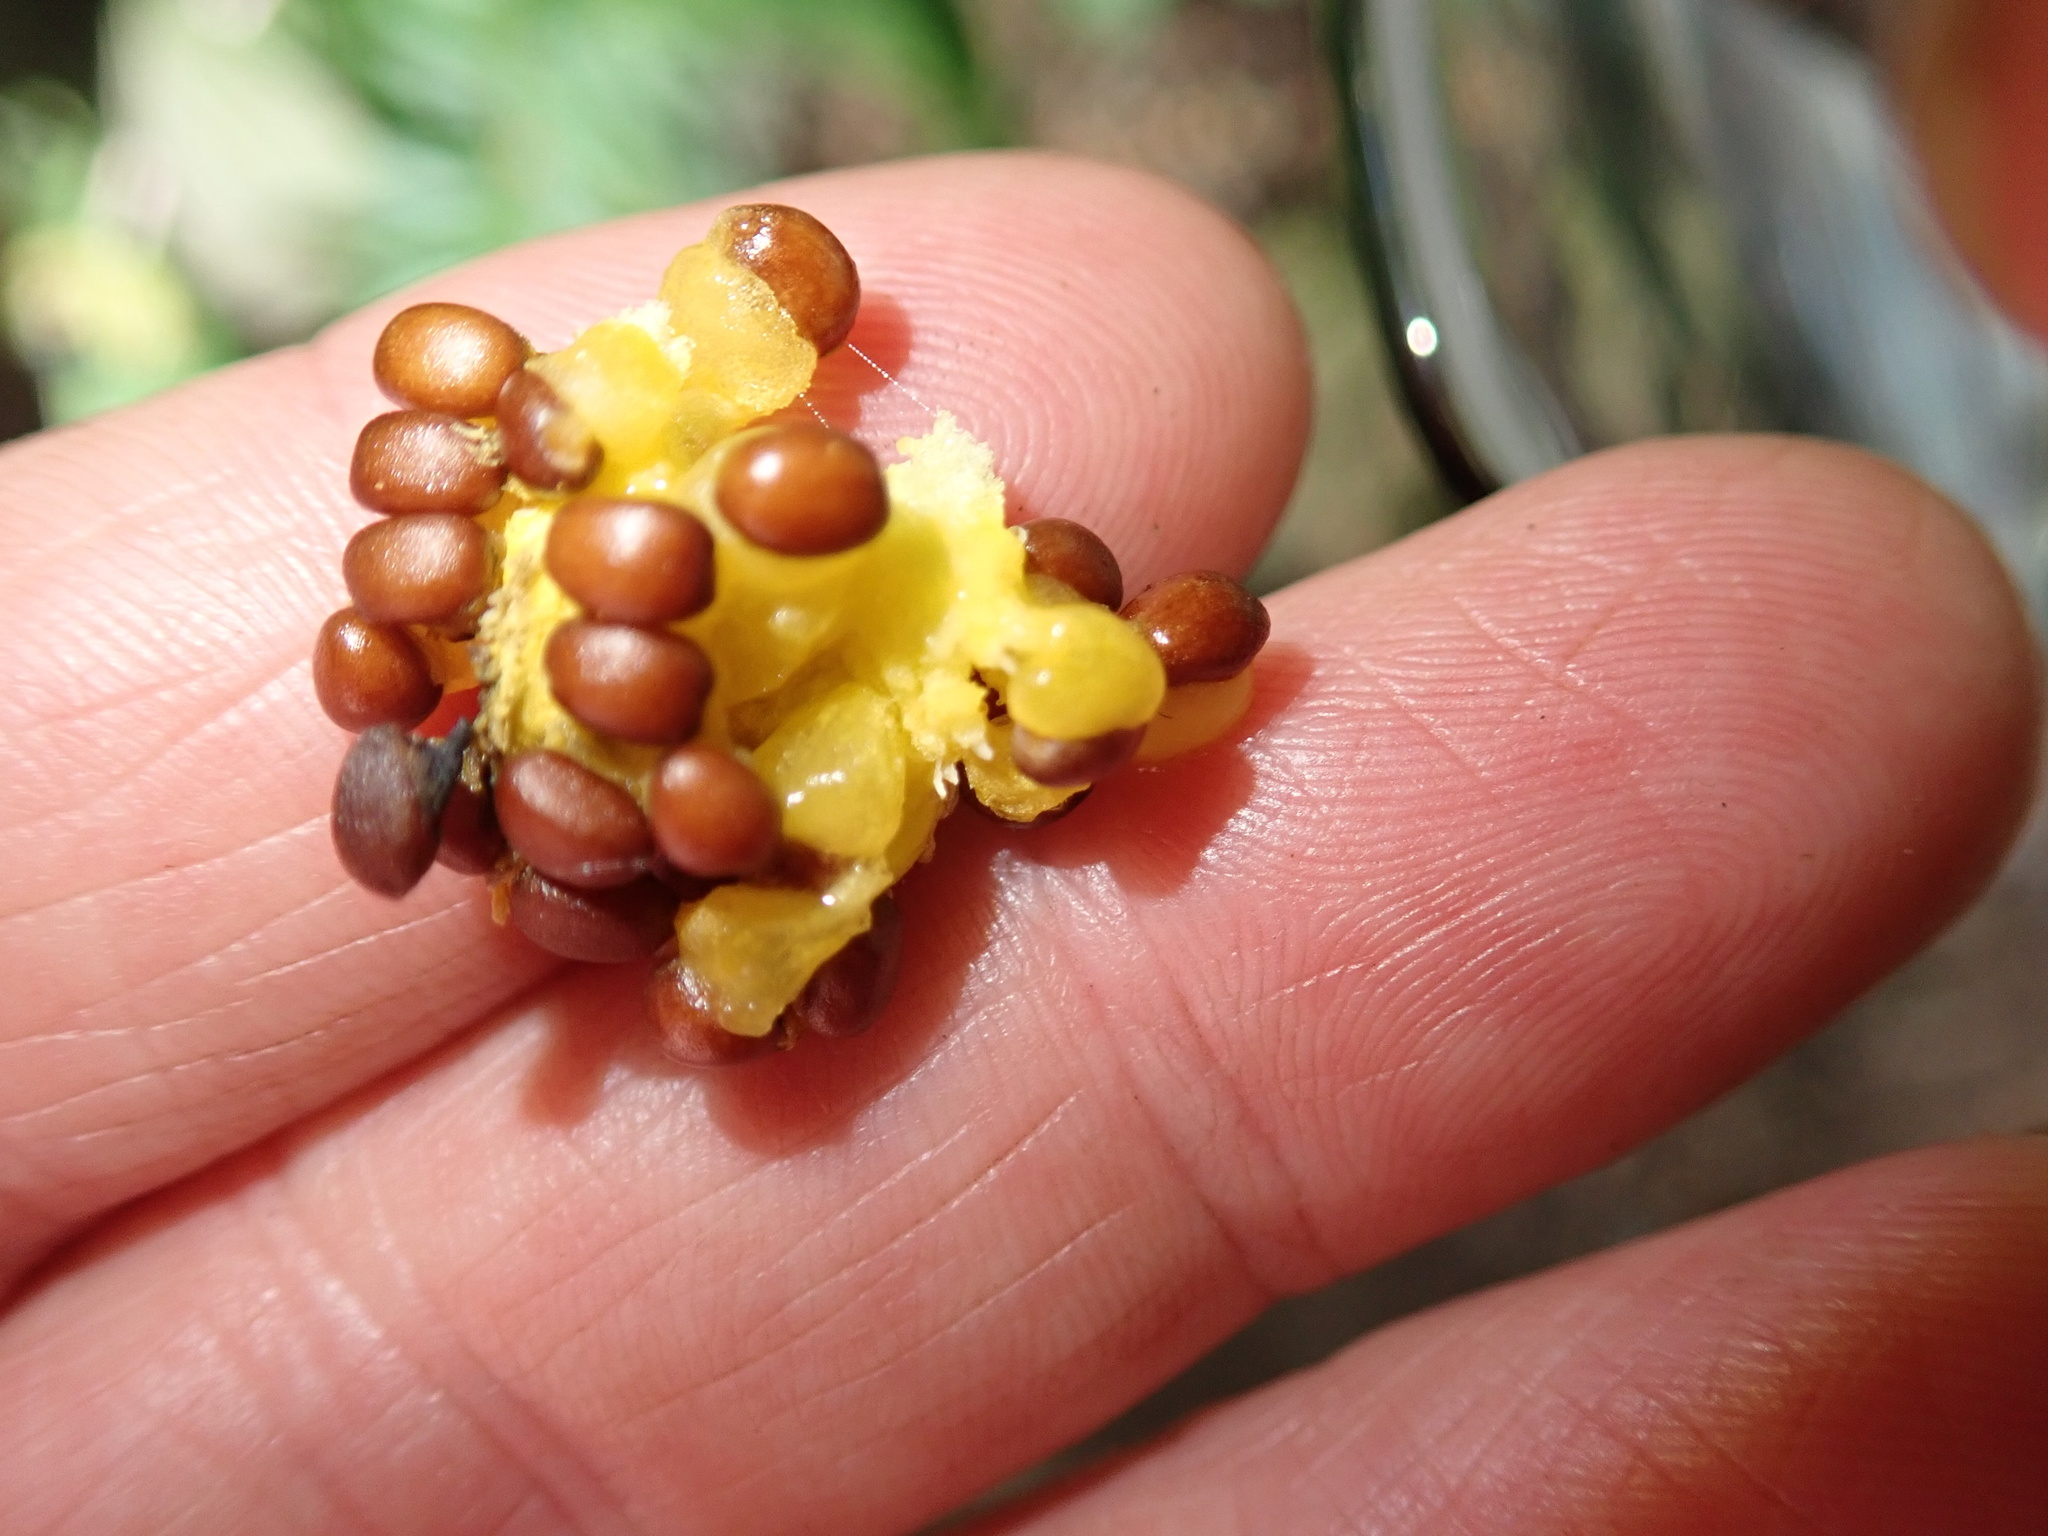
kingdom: Plantae
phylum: Tracheophyta
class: Liliopsida
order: Liliales
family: Melanthiaceae
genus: Trillium
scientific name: Trillium ovatum
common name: Pacific trillium
